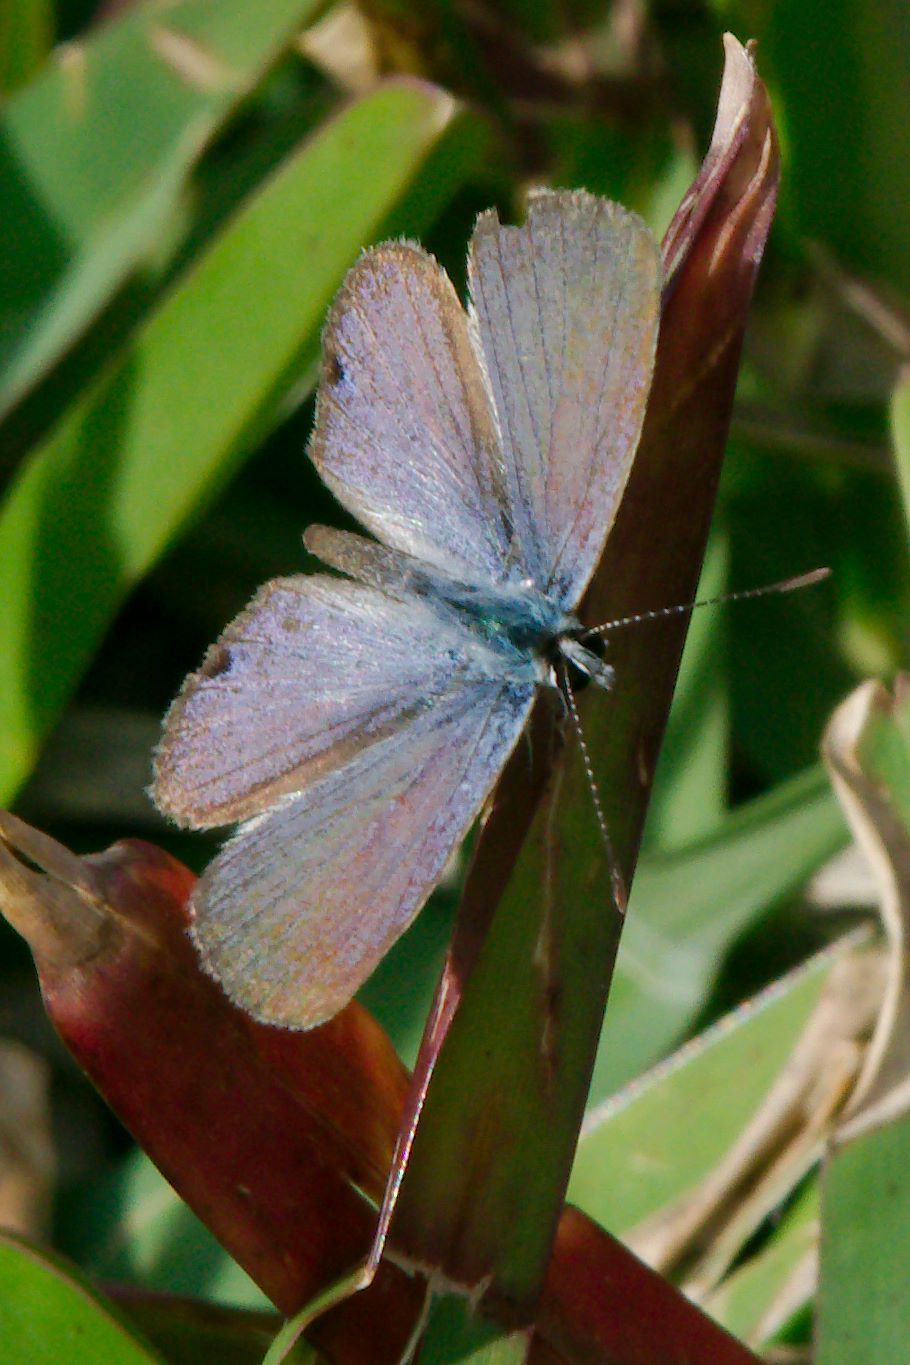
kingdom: Animalia
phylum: Arthropoda
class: Insecta
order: Lepidoptera
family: Lycaenidae
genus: Hemiargus
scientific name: Hemiargus ceraunus
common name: Ceraunus blue
